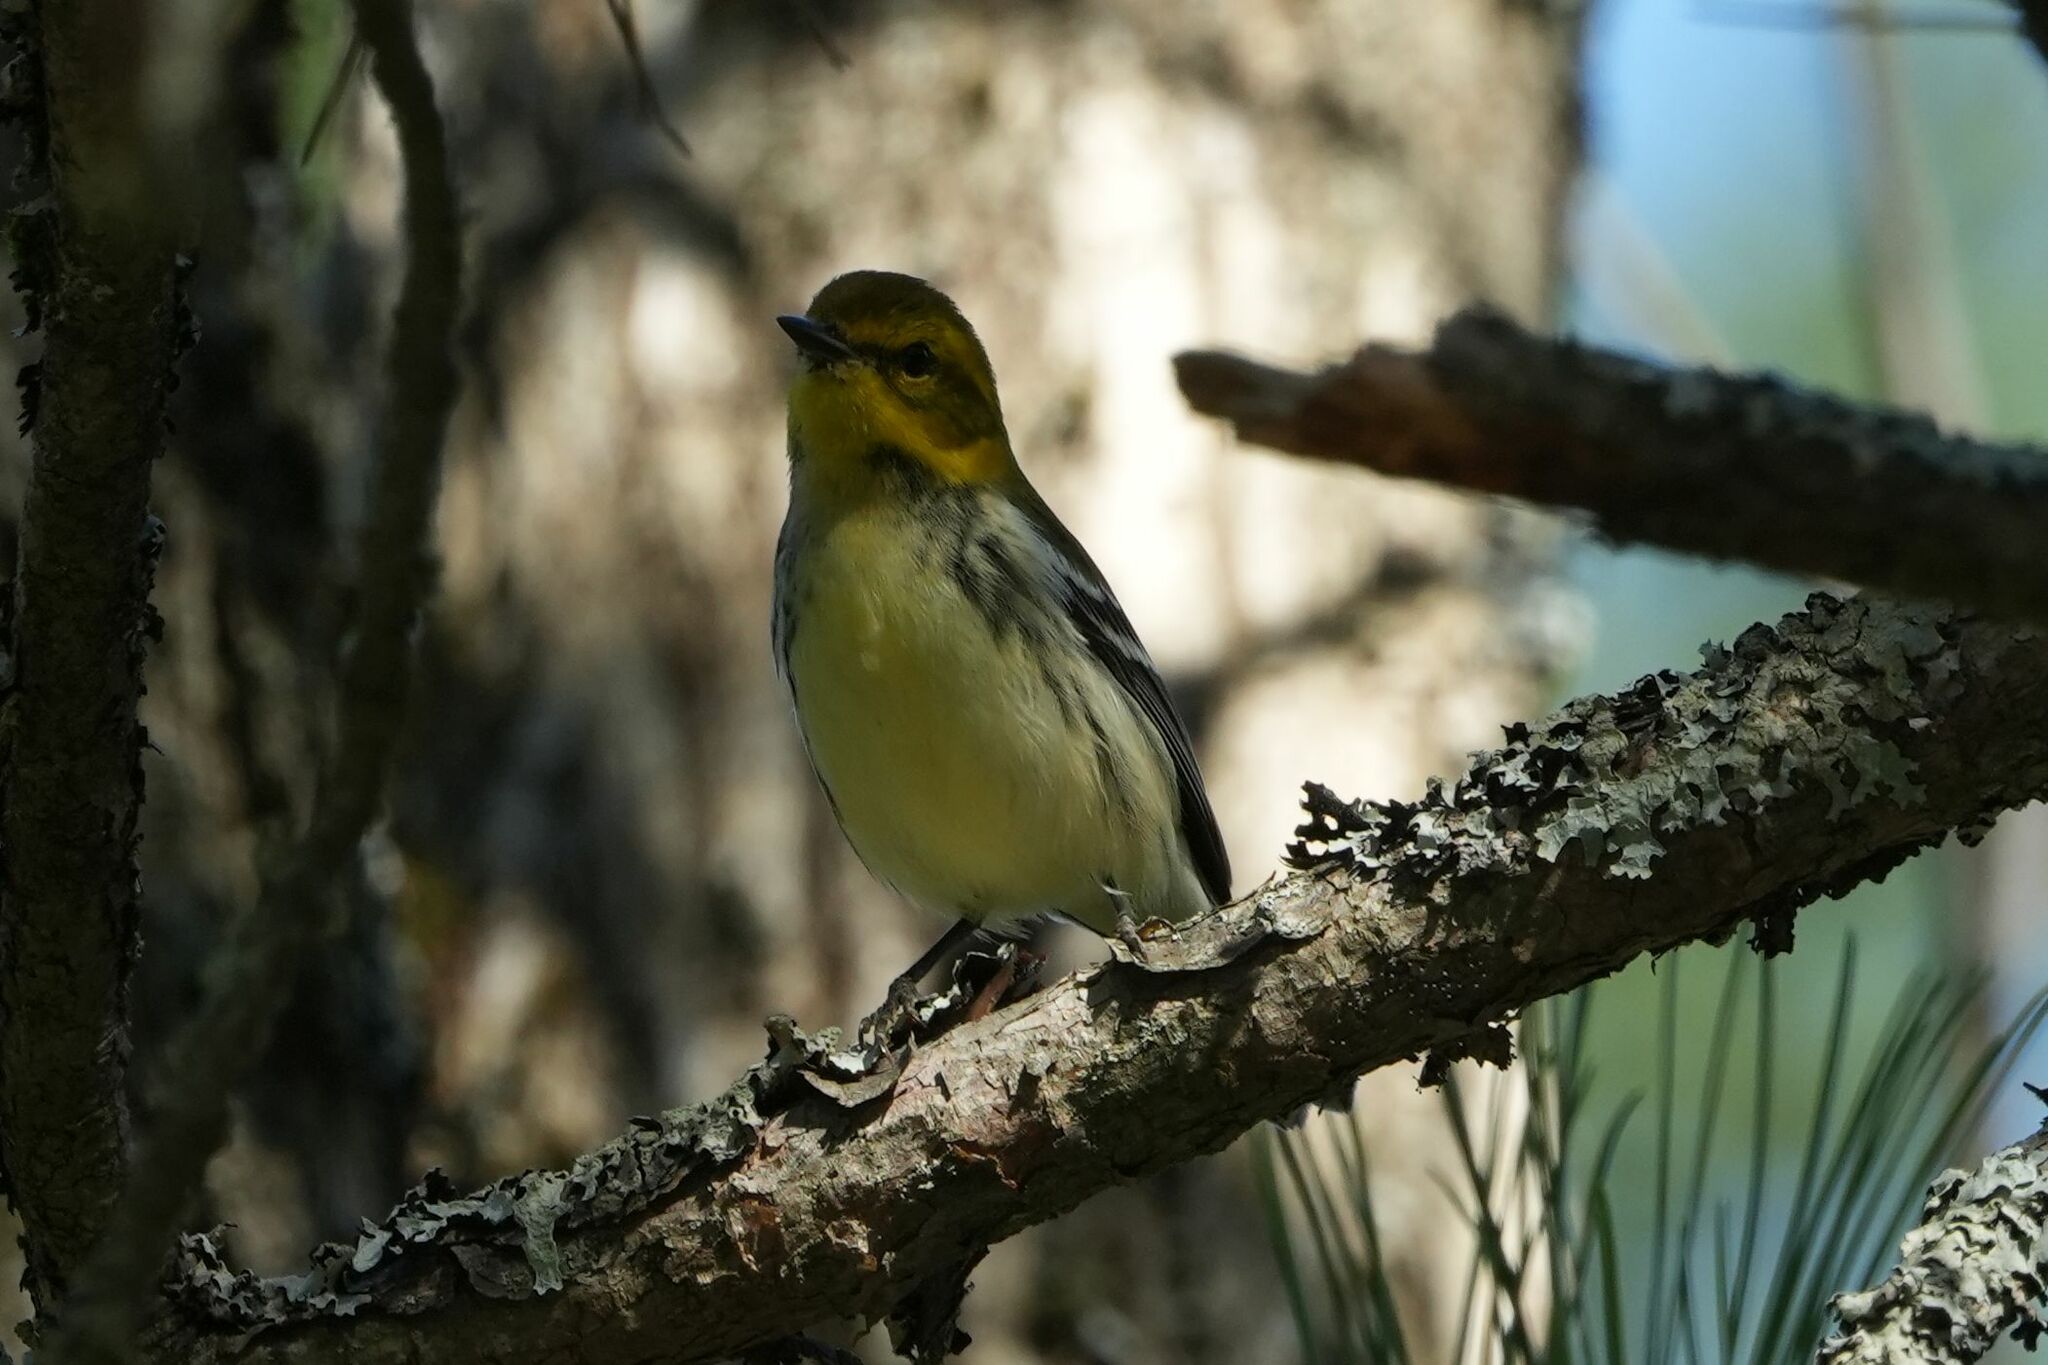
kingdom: Animalia
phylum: Chordata
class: Aves
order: Passeriformes
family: Parulidae
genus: Setophaga
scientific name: Setophaga virens
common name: Black-throated green warbler
